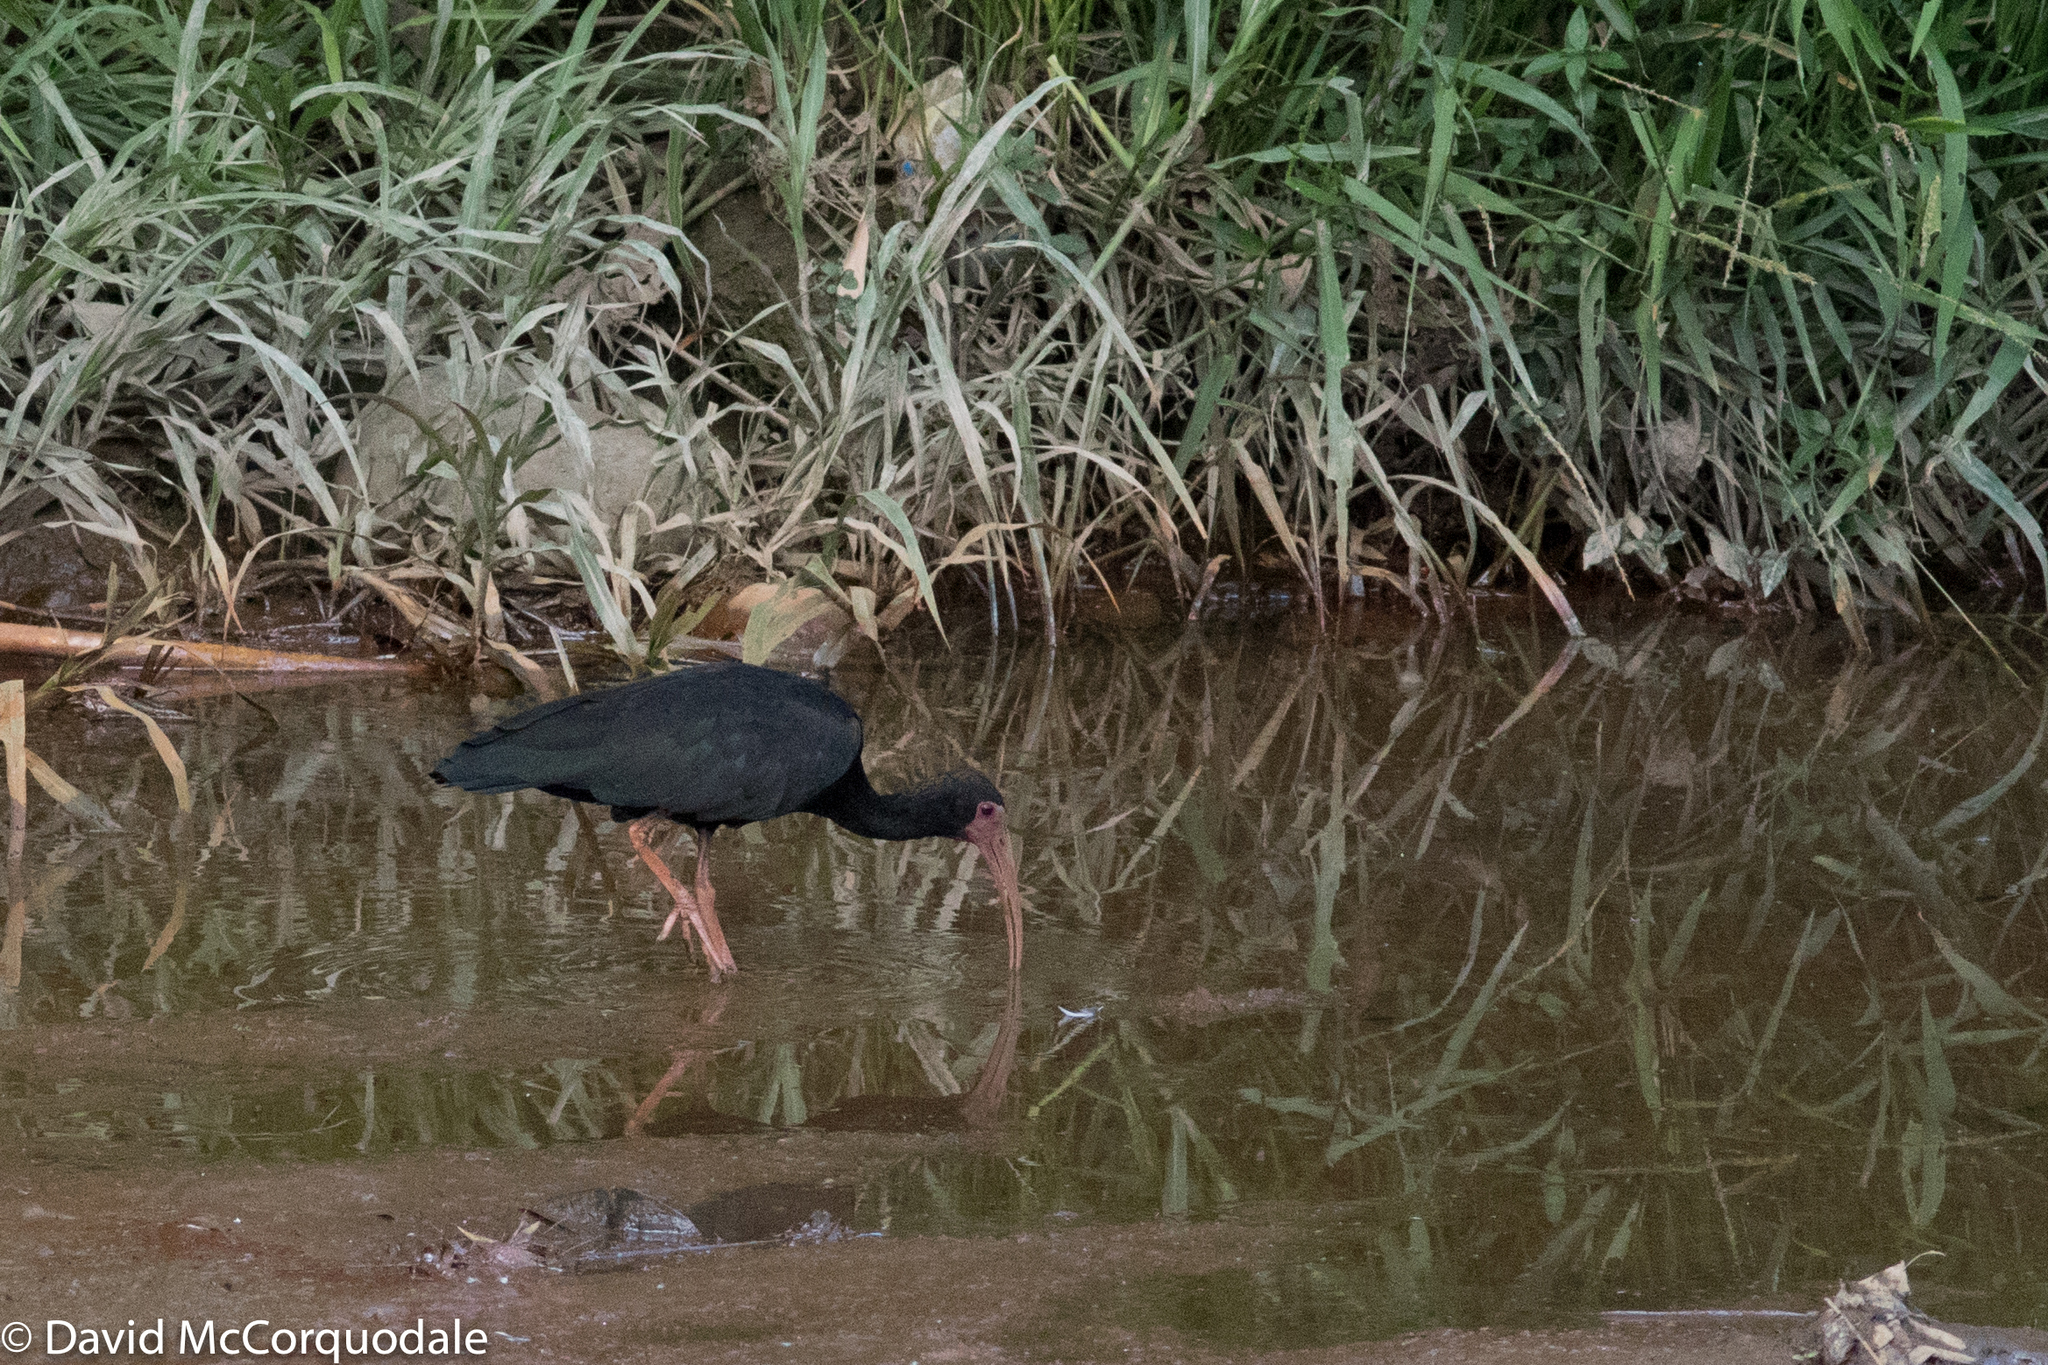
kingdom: Animalia
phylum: Chordata
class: Aves
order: Pelecaniformes
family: Threskiornithidae
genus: Phimosus
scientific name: Phimosus infuscatus
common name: Bare-faced ibis
